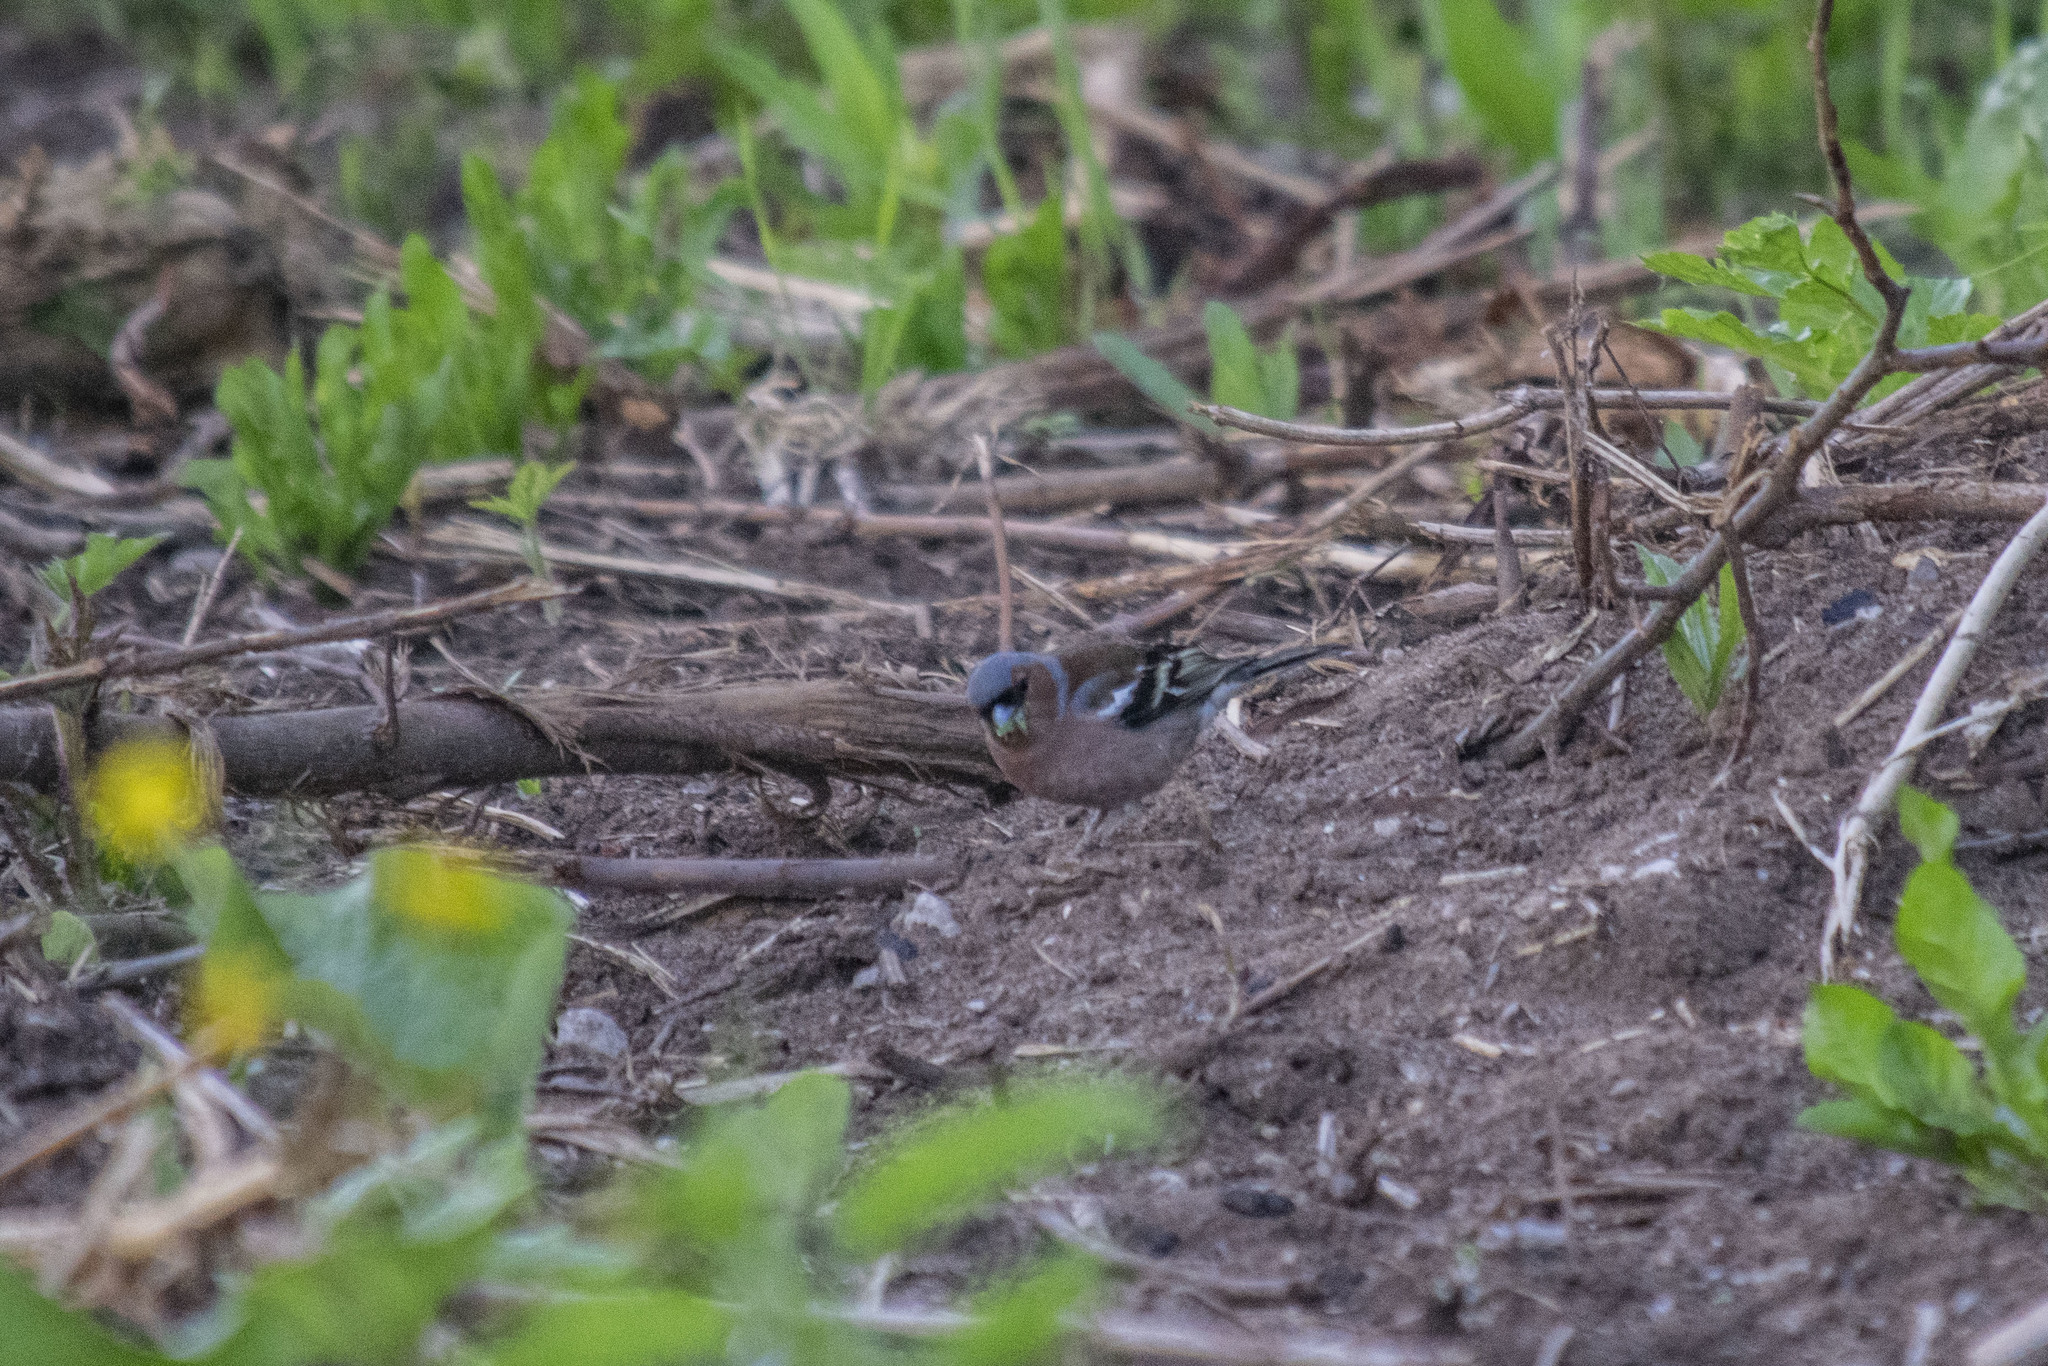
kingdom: Animalia
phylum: Chordata
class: Aves
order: Passeriformes
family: Fringillidae
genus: Fringilla
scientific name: Fringilla coelebs
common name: Common chaffinch
